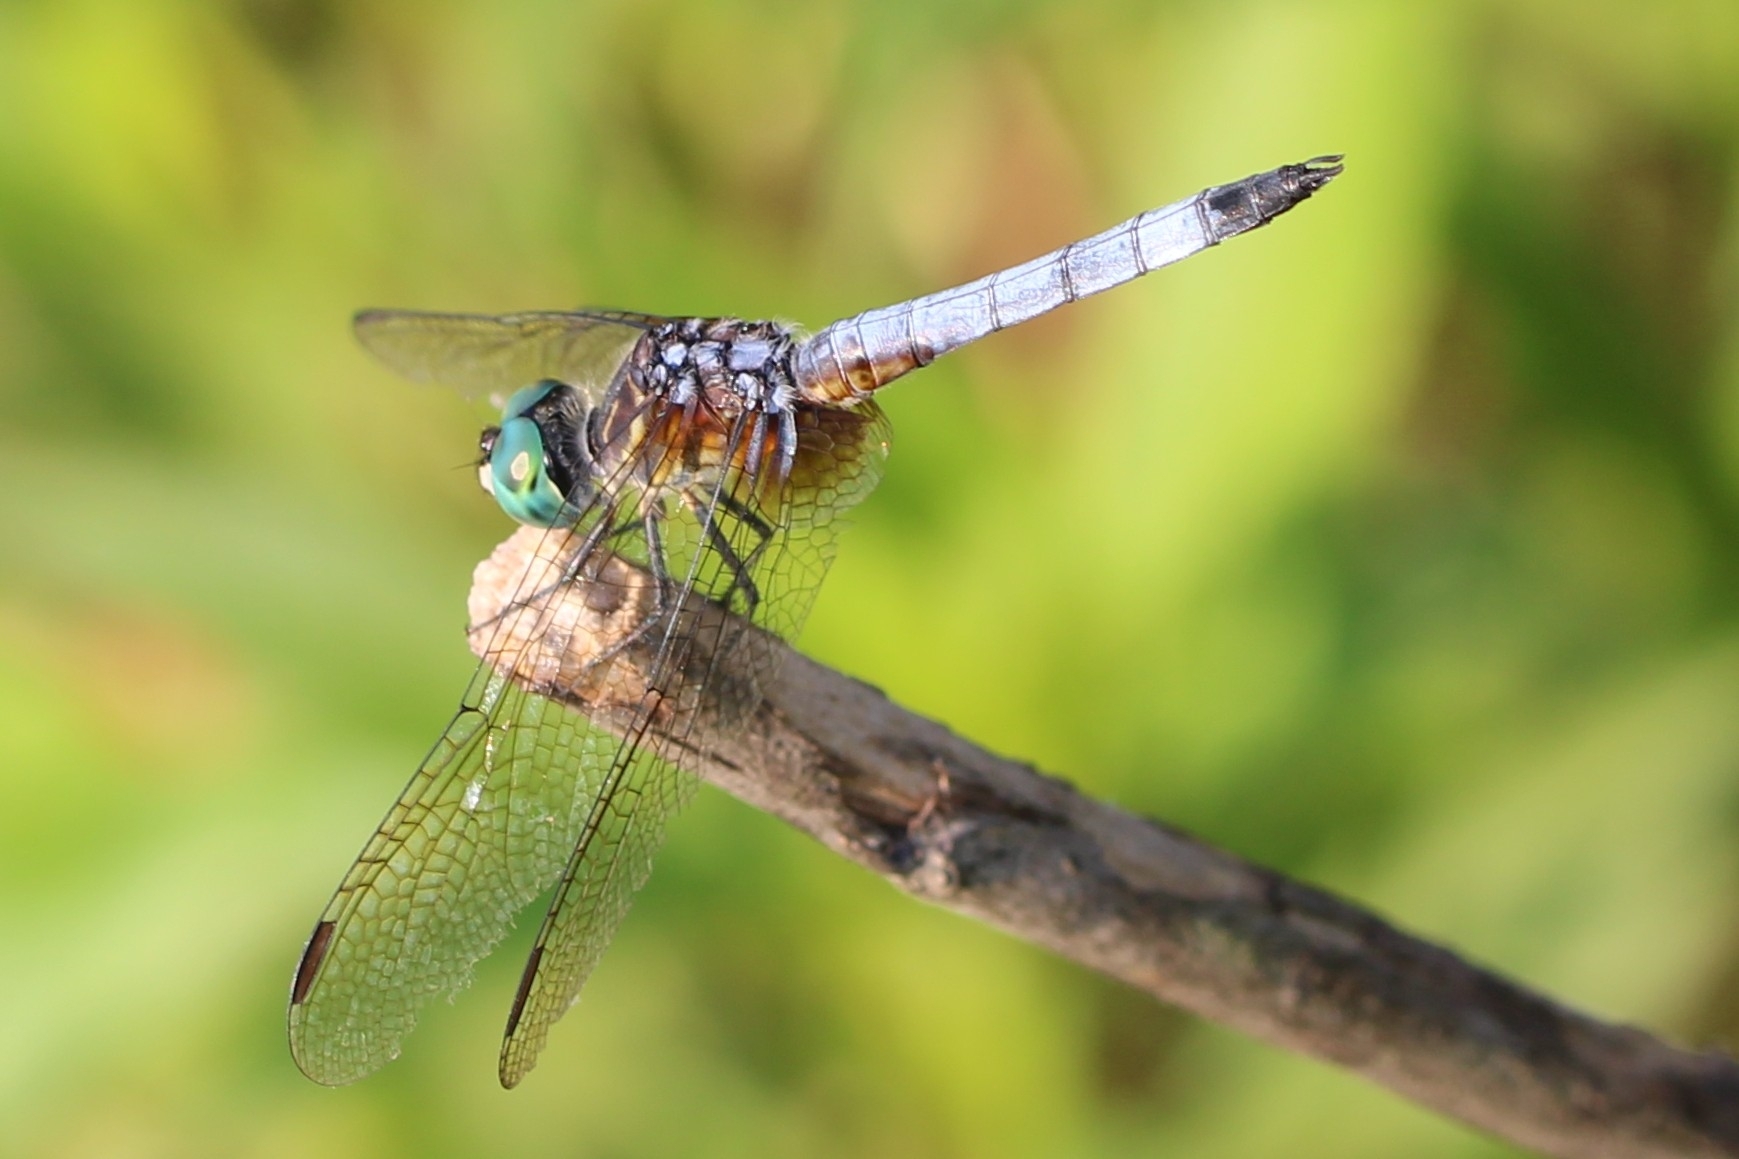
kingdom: Animalia
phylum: Arthropoda
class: Insecta
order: Odonata
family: Libellulidae
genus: Pachydiplax
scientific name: Pachydiplax longipennis
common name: Blue dasher
